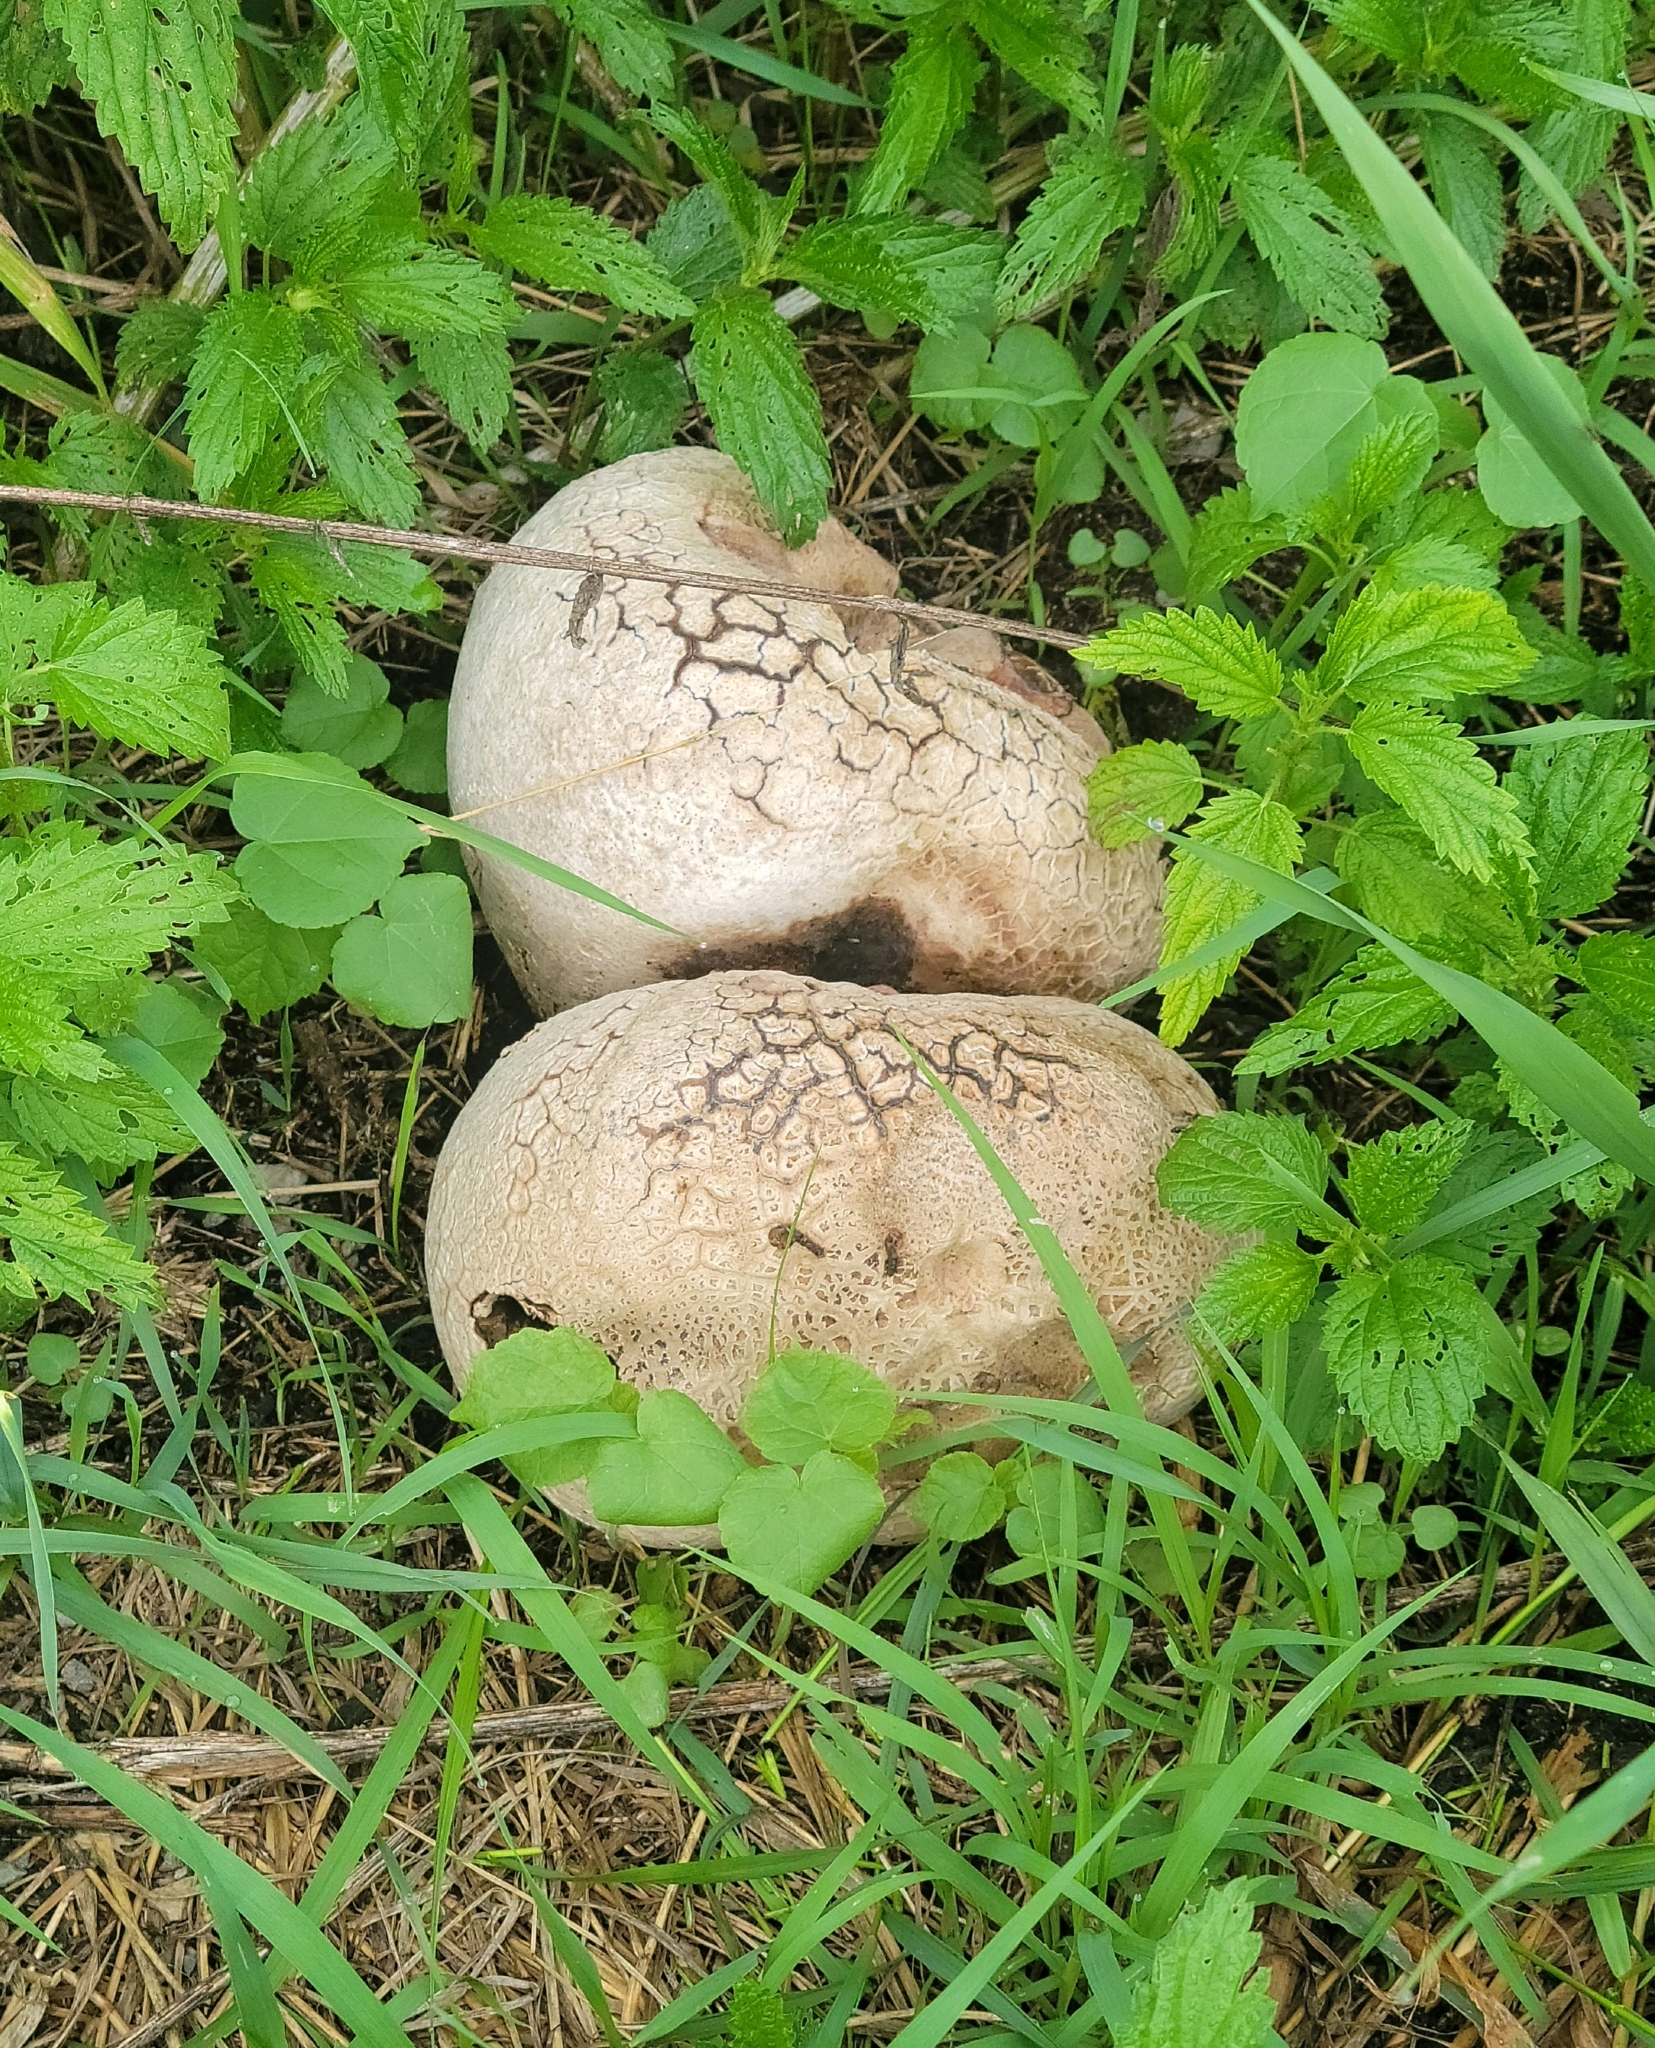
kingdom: Fungi
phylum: Basidiomycota
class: Agaricomycetes
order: Agaricales
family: Lycoperdaceae
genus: Calvatia
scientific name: Calvatia booniana
